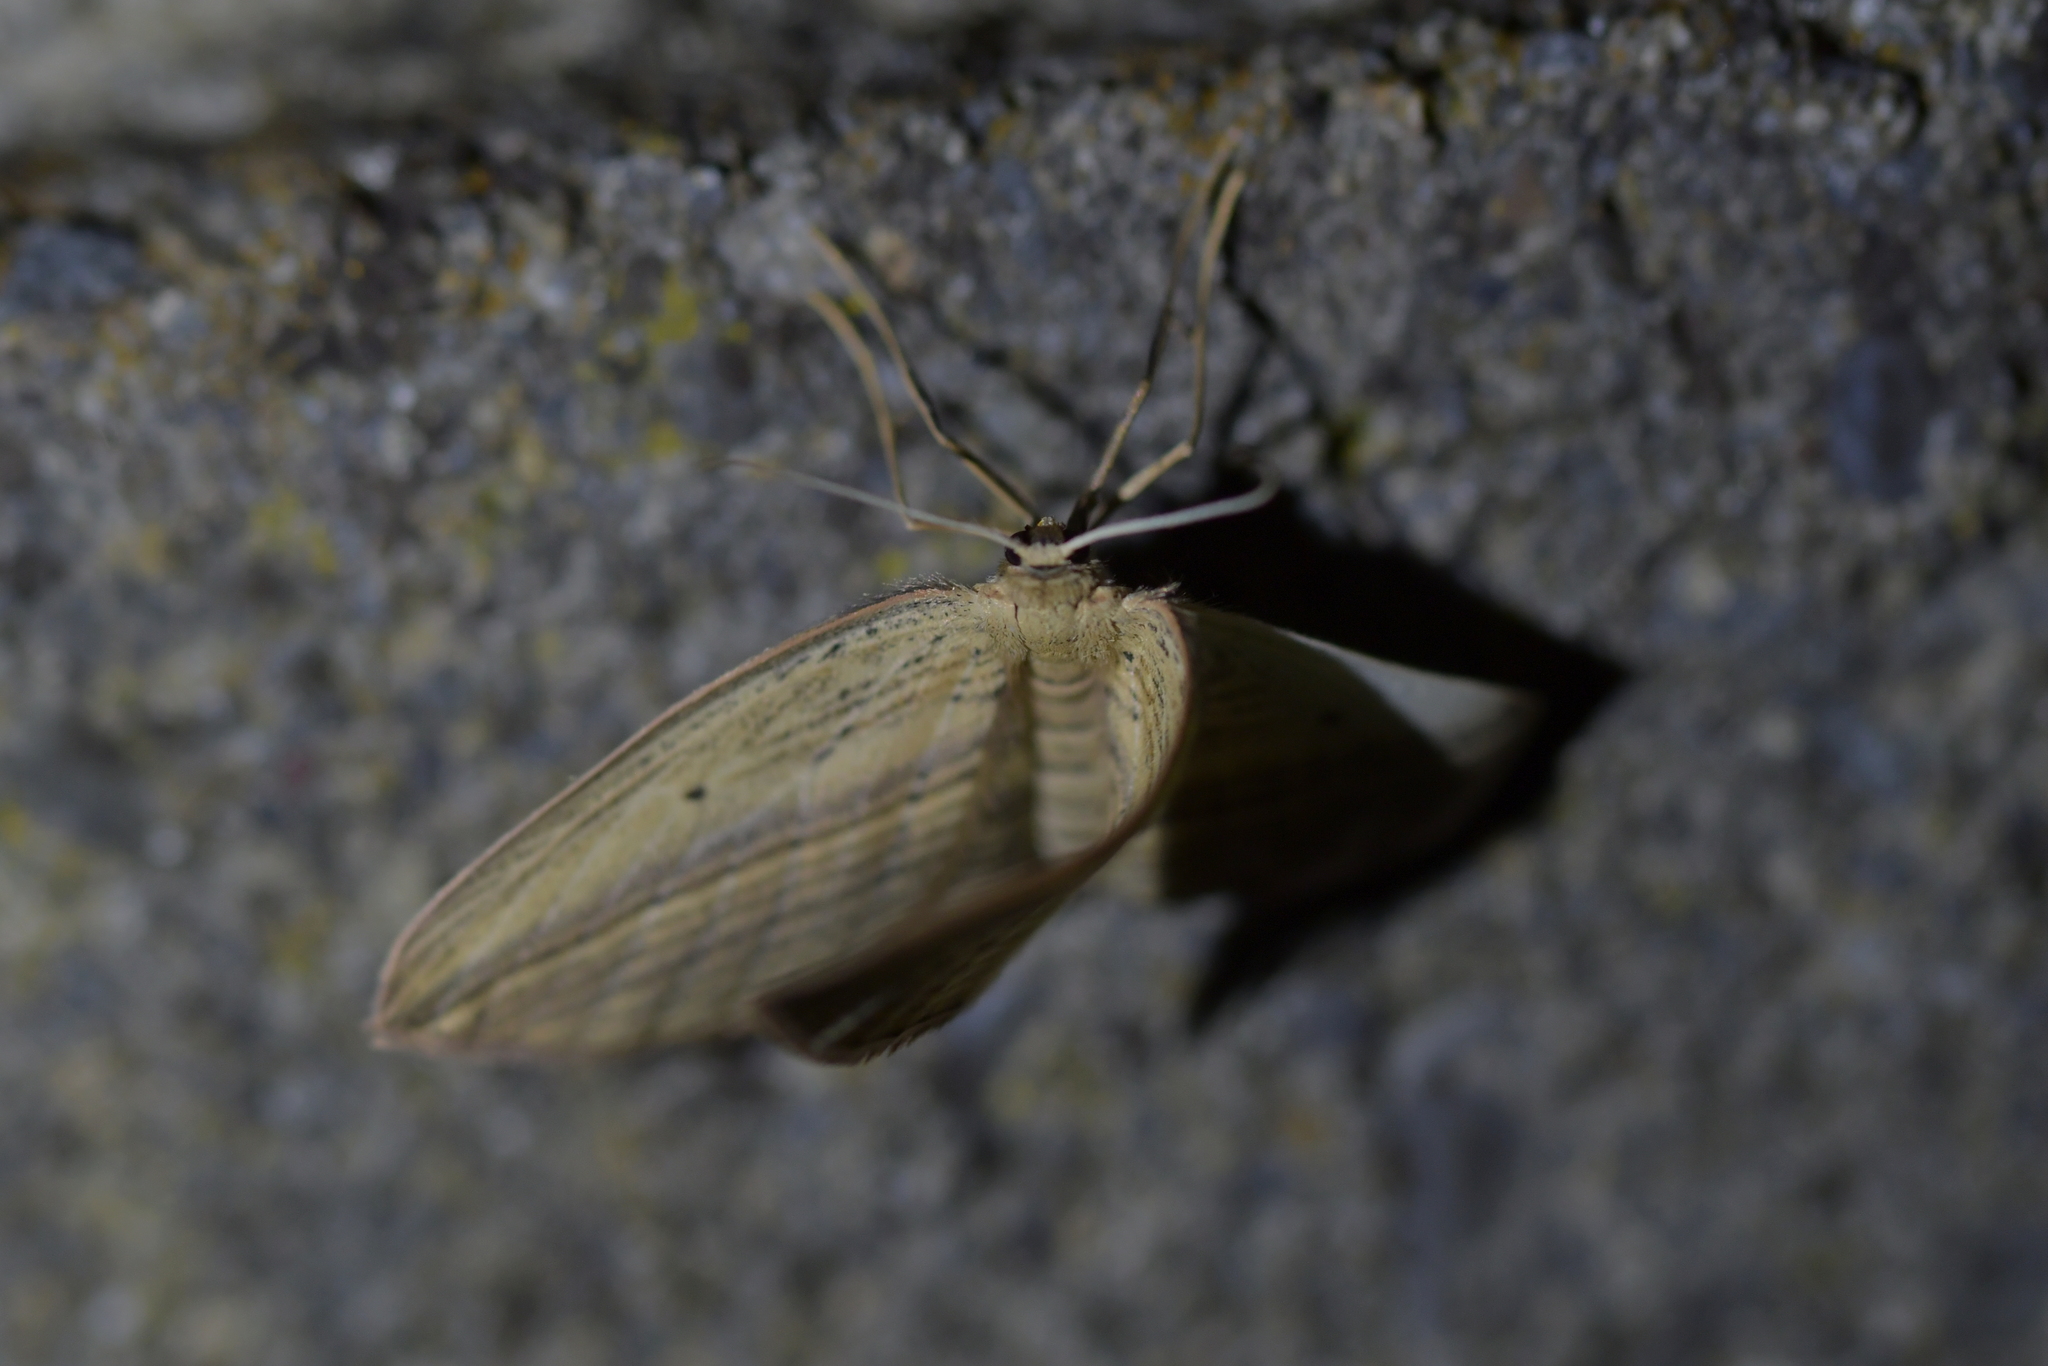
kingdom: Animalia
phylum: Arthropoda
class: Insecta
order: Lepidoptera
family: Geometridae
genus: Epiphryne
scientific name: Epiphryne verriculata
